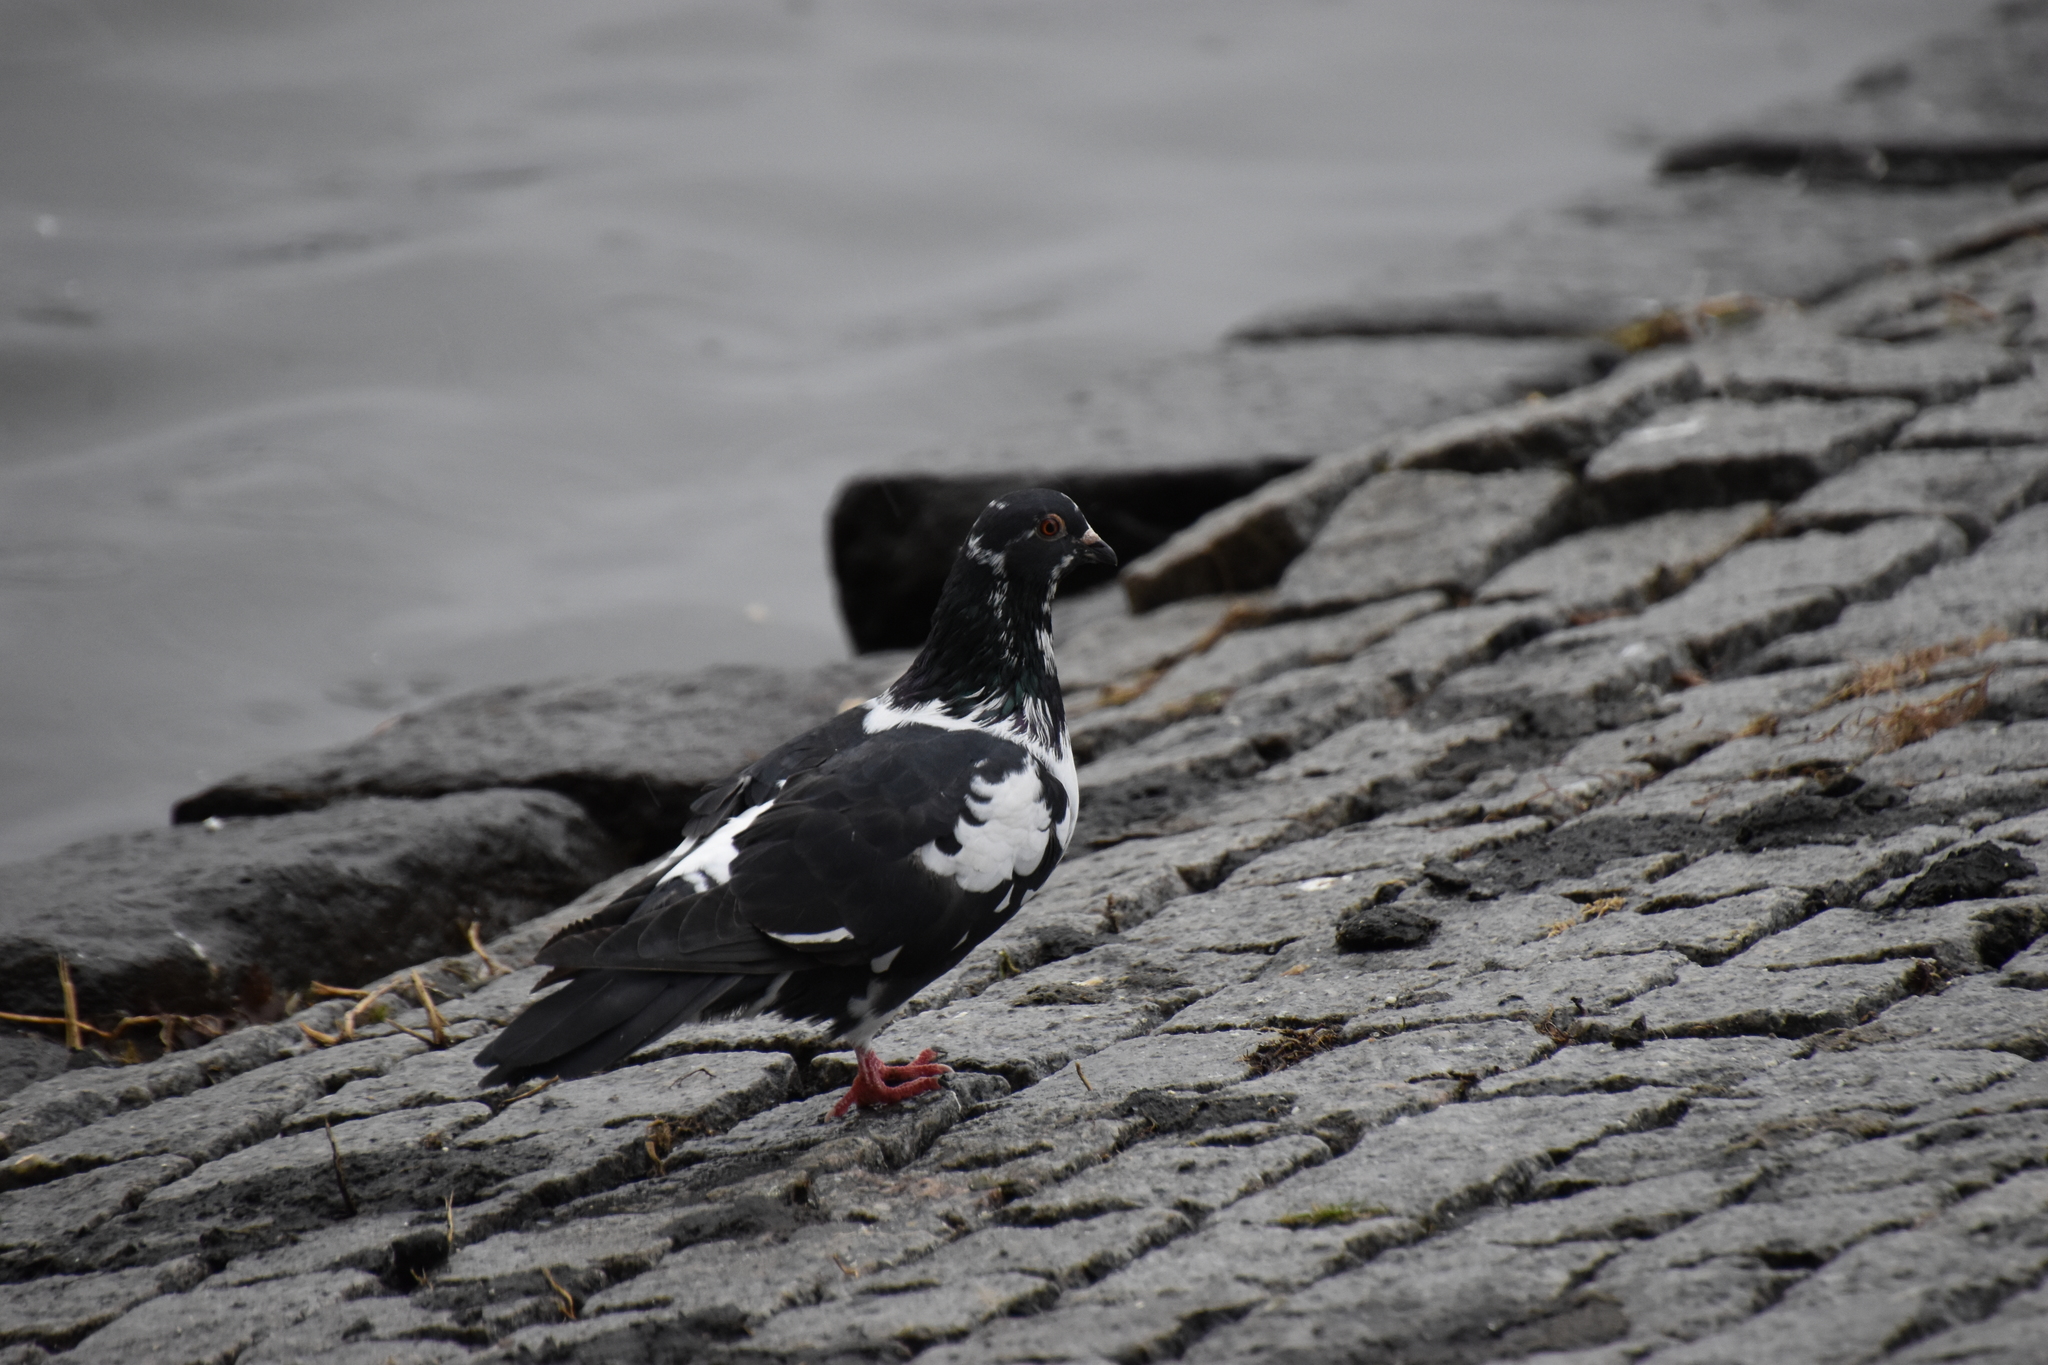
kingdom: Animalia
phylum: Chordata
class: Aves
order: Columbiformes
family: Columbidae
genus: Columba
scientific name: Columba livia
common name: Rock pigeon
